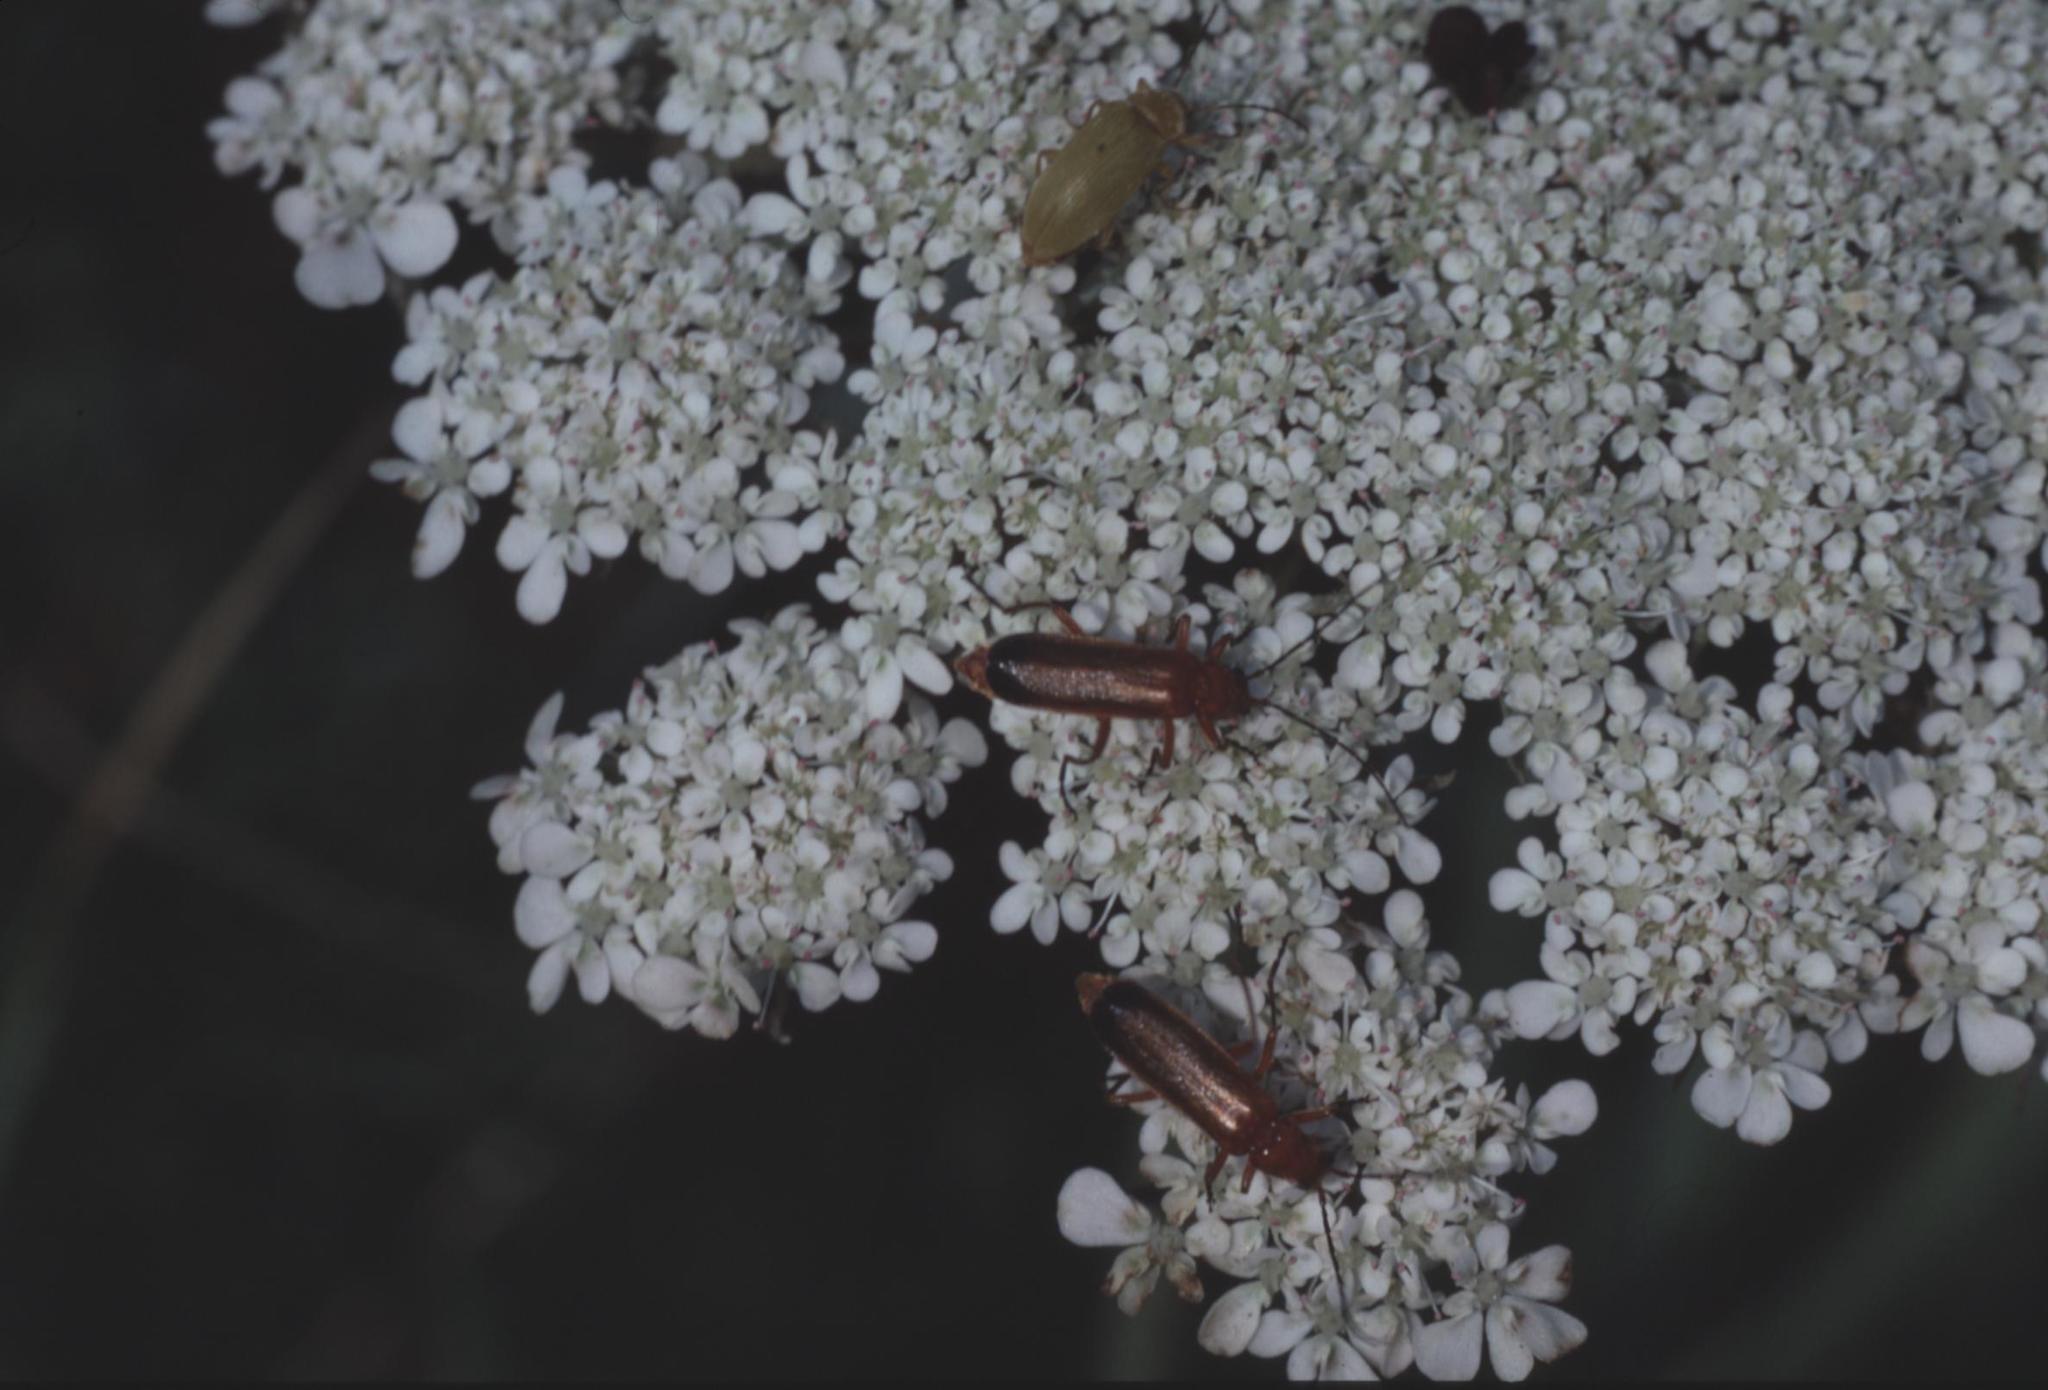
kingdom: Animalia
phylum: Arthropoda
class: Insecta
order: Coleoptera
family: Cantharidae
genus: Rhagonycha
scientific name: Rhagonycha fulva
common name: Common red soldier beetle
